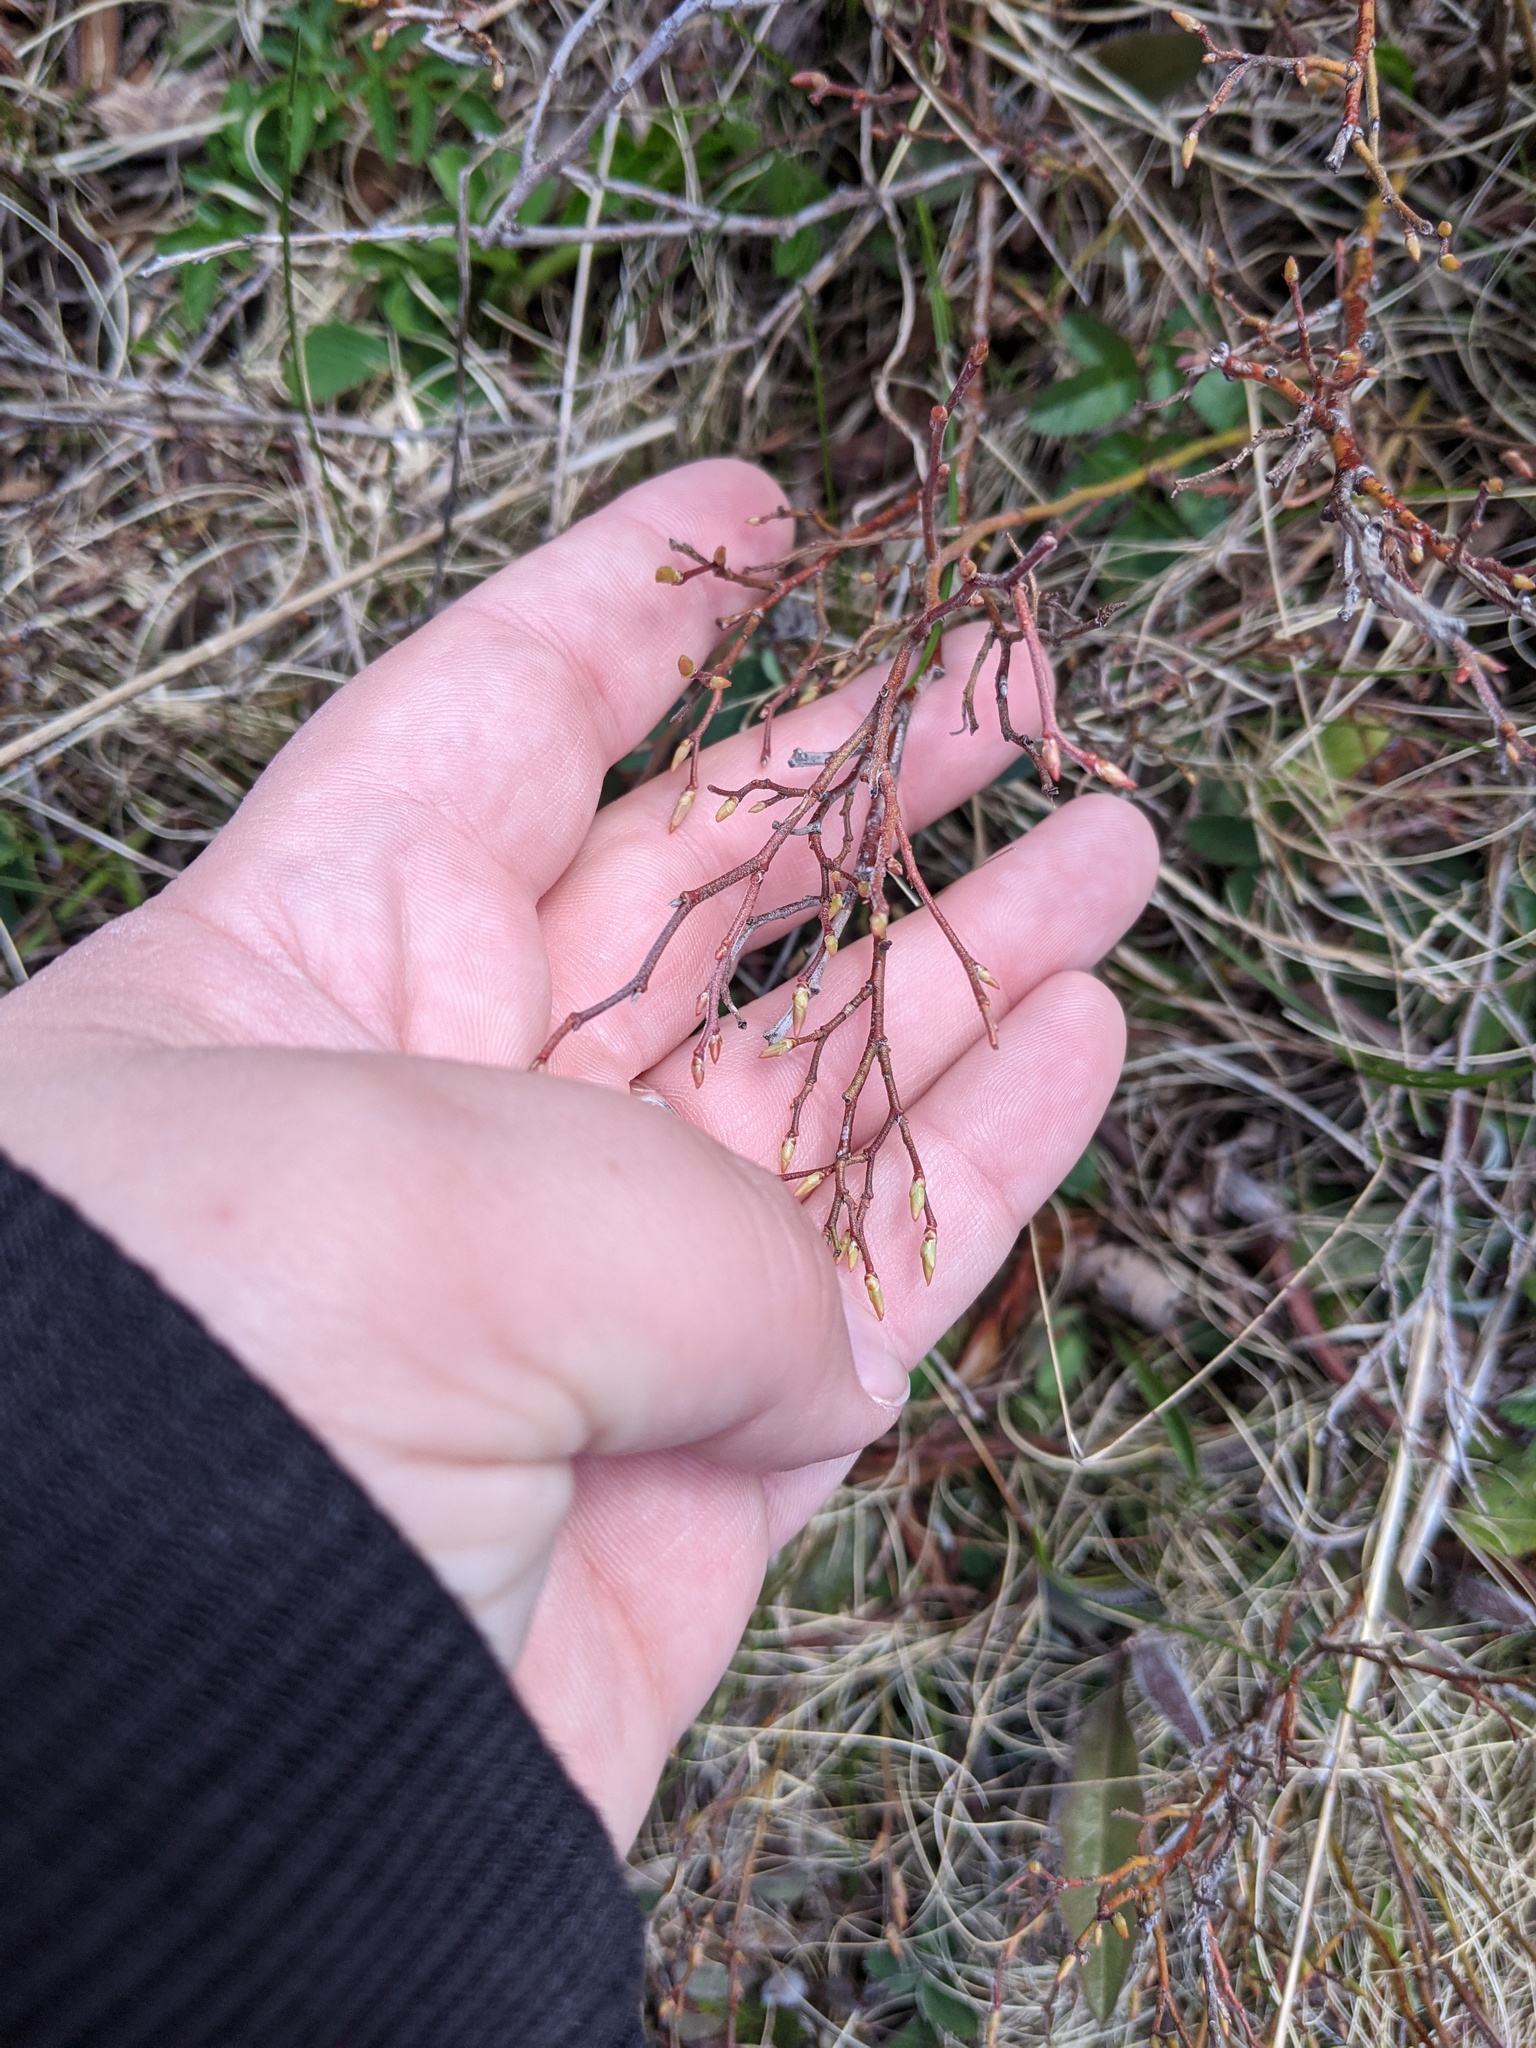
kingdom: Plantae
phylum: Tracheophyta
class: Magnoliopsida
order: Ericales
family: Ericaceae
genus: Vaccinium
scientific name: Vaccinium angustifolium
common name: Early lowbush blueberry
